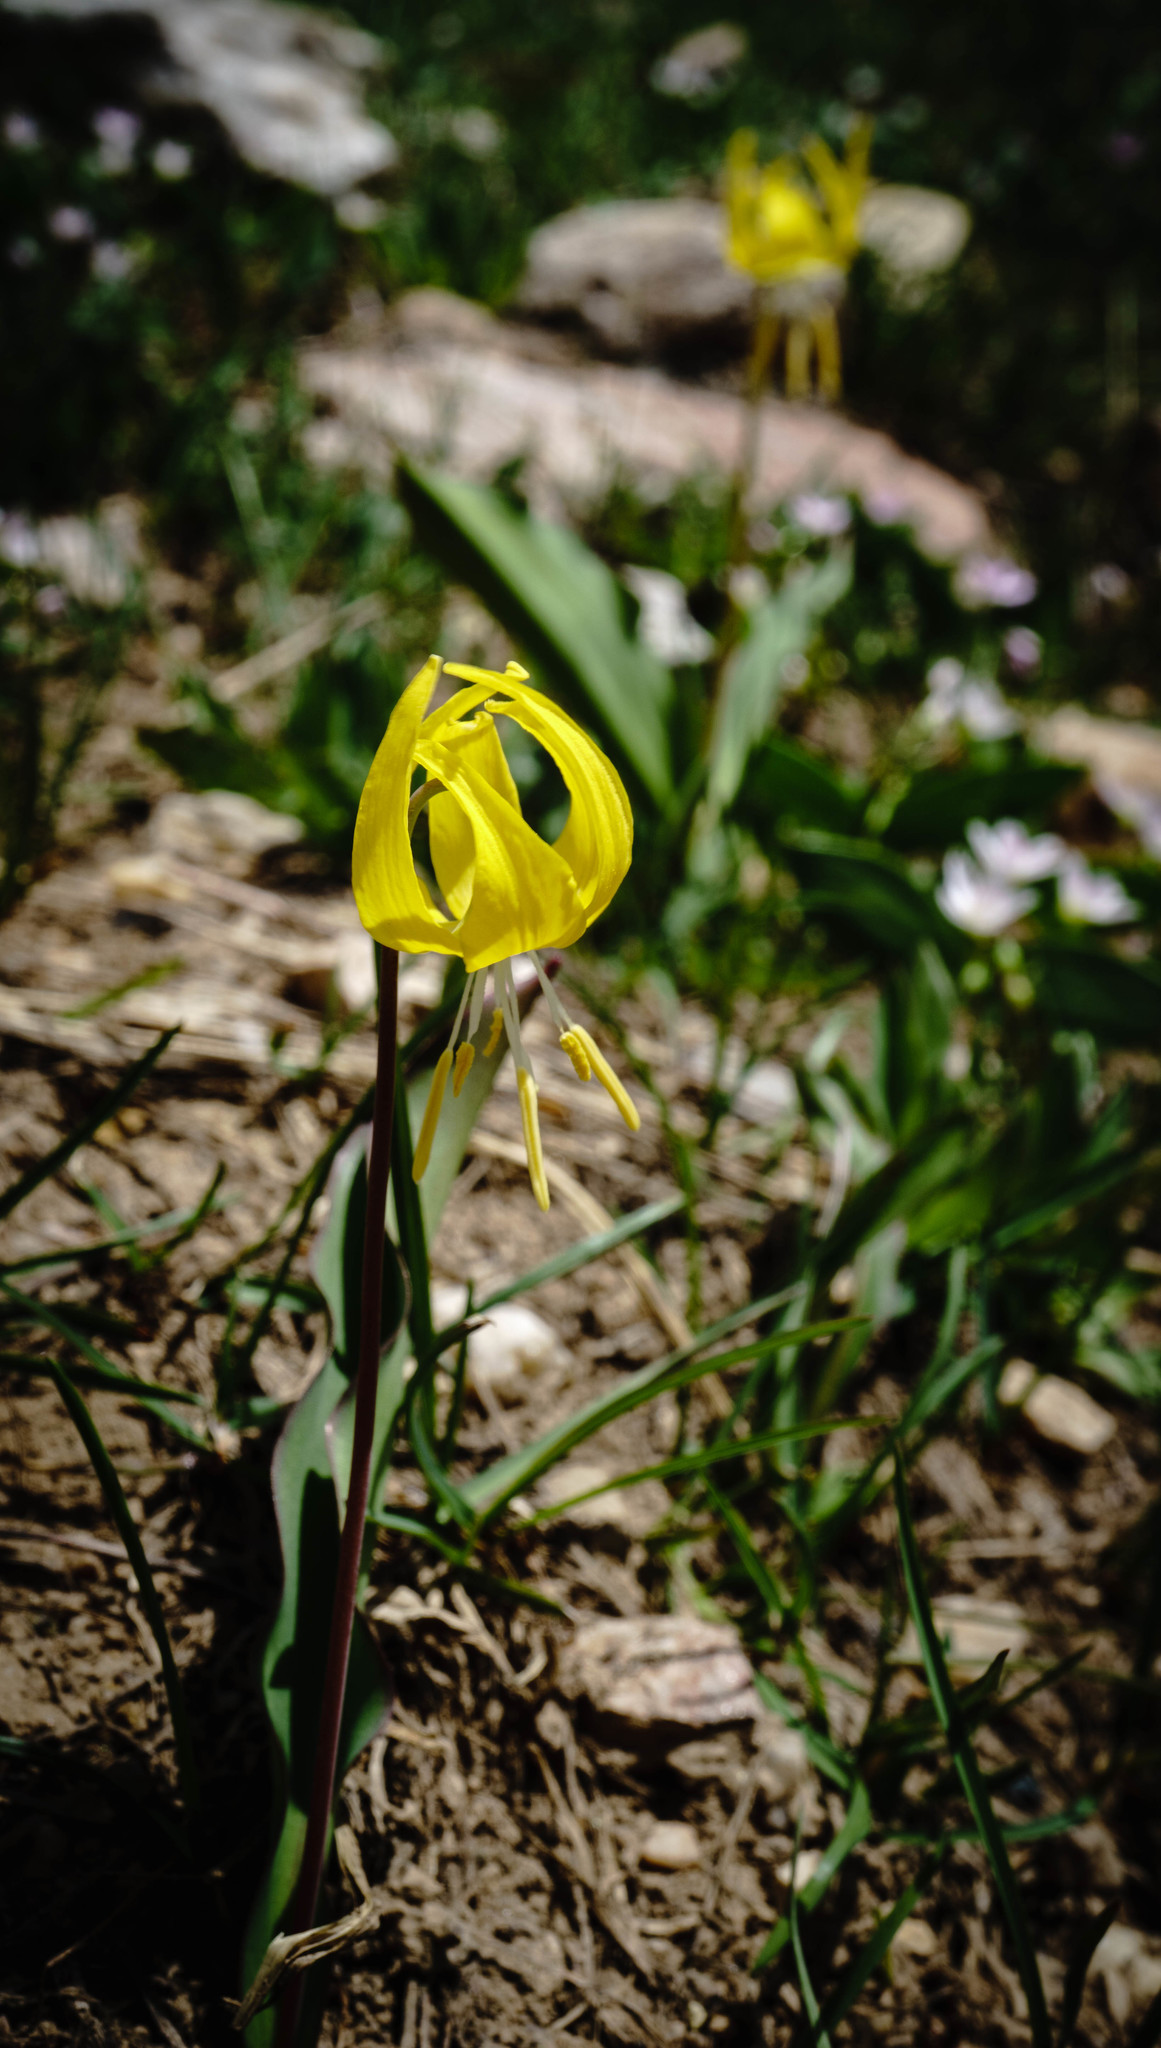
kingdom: Plantae
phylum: Tracheophyta
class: Liliopsida
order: Liliales
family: Liliaceae
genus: Erythronium
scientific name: Erythronium grandiflorum
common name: Avalanche-lily
